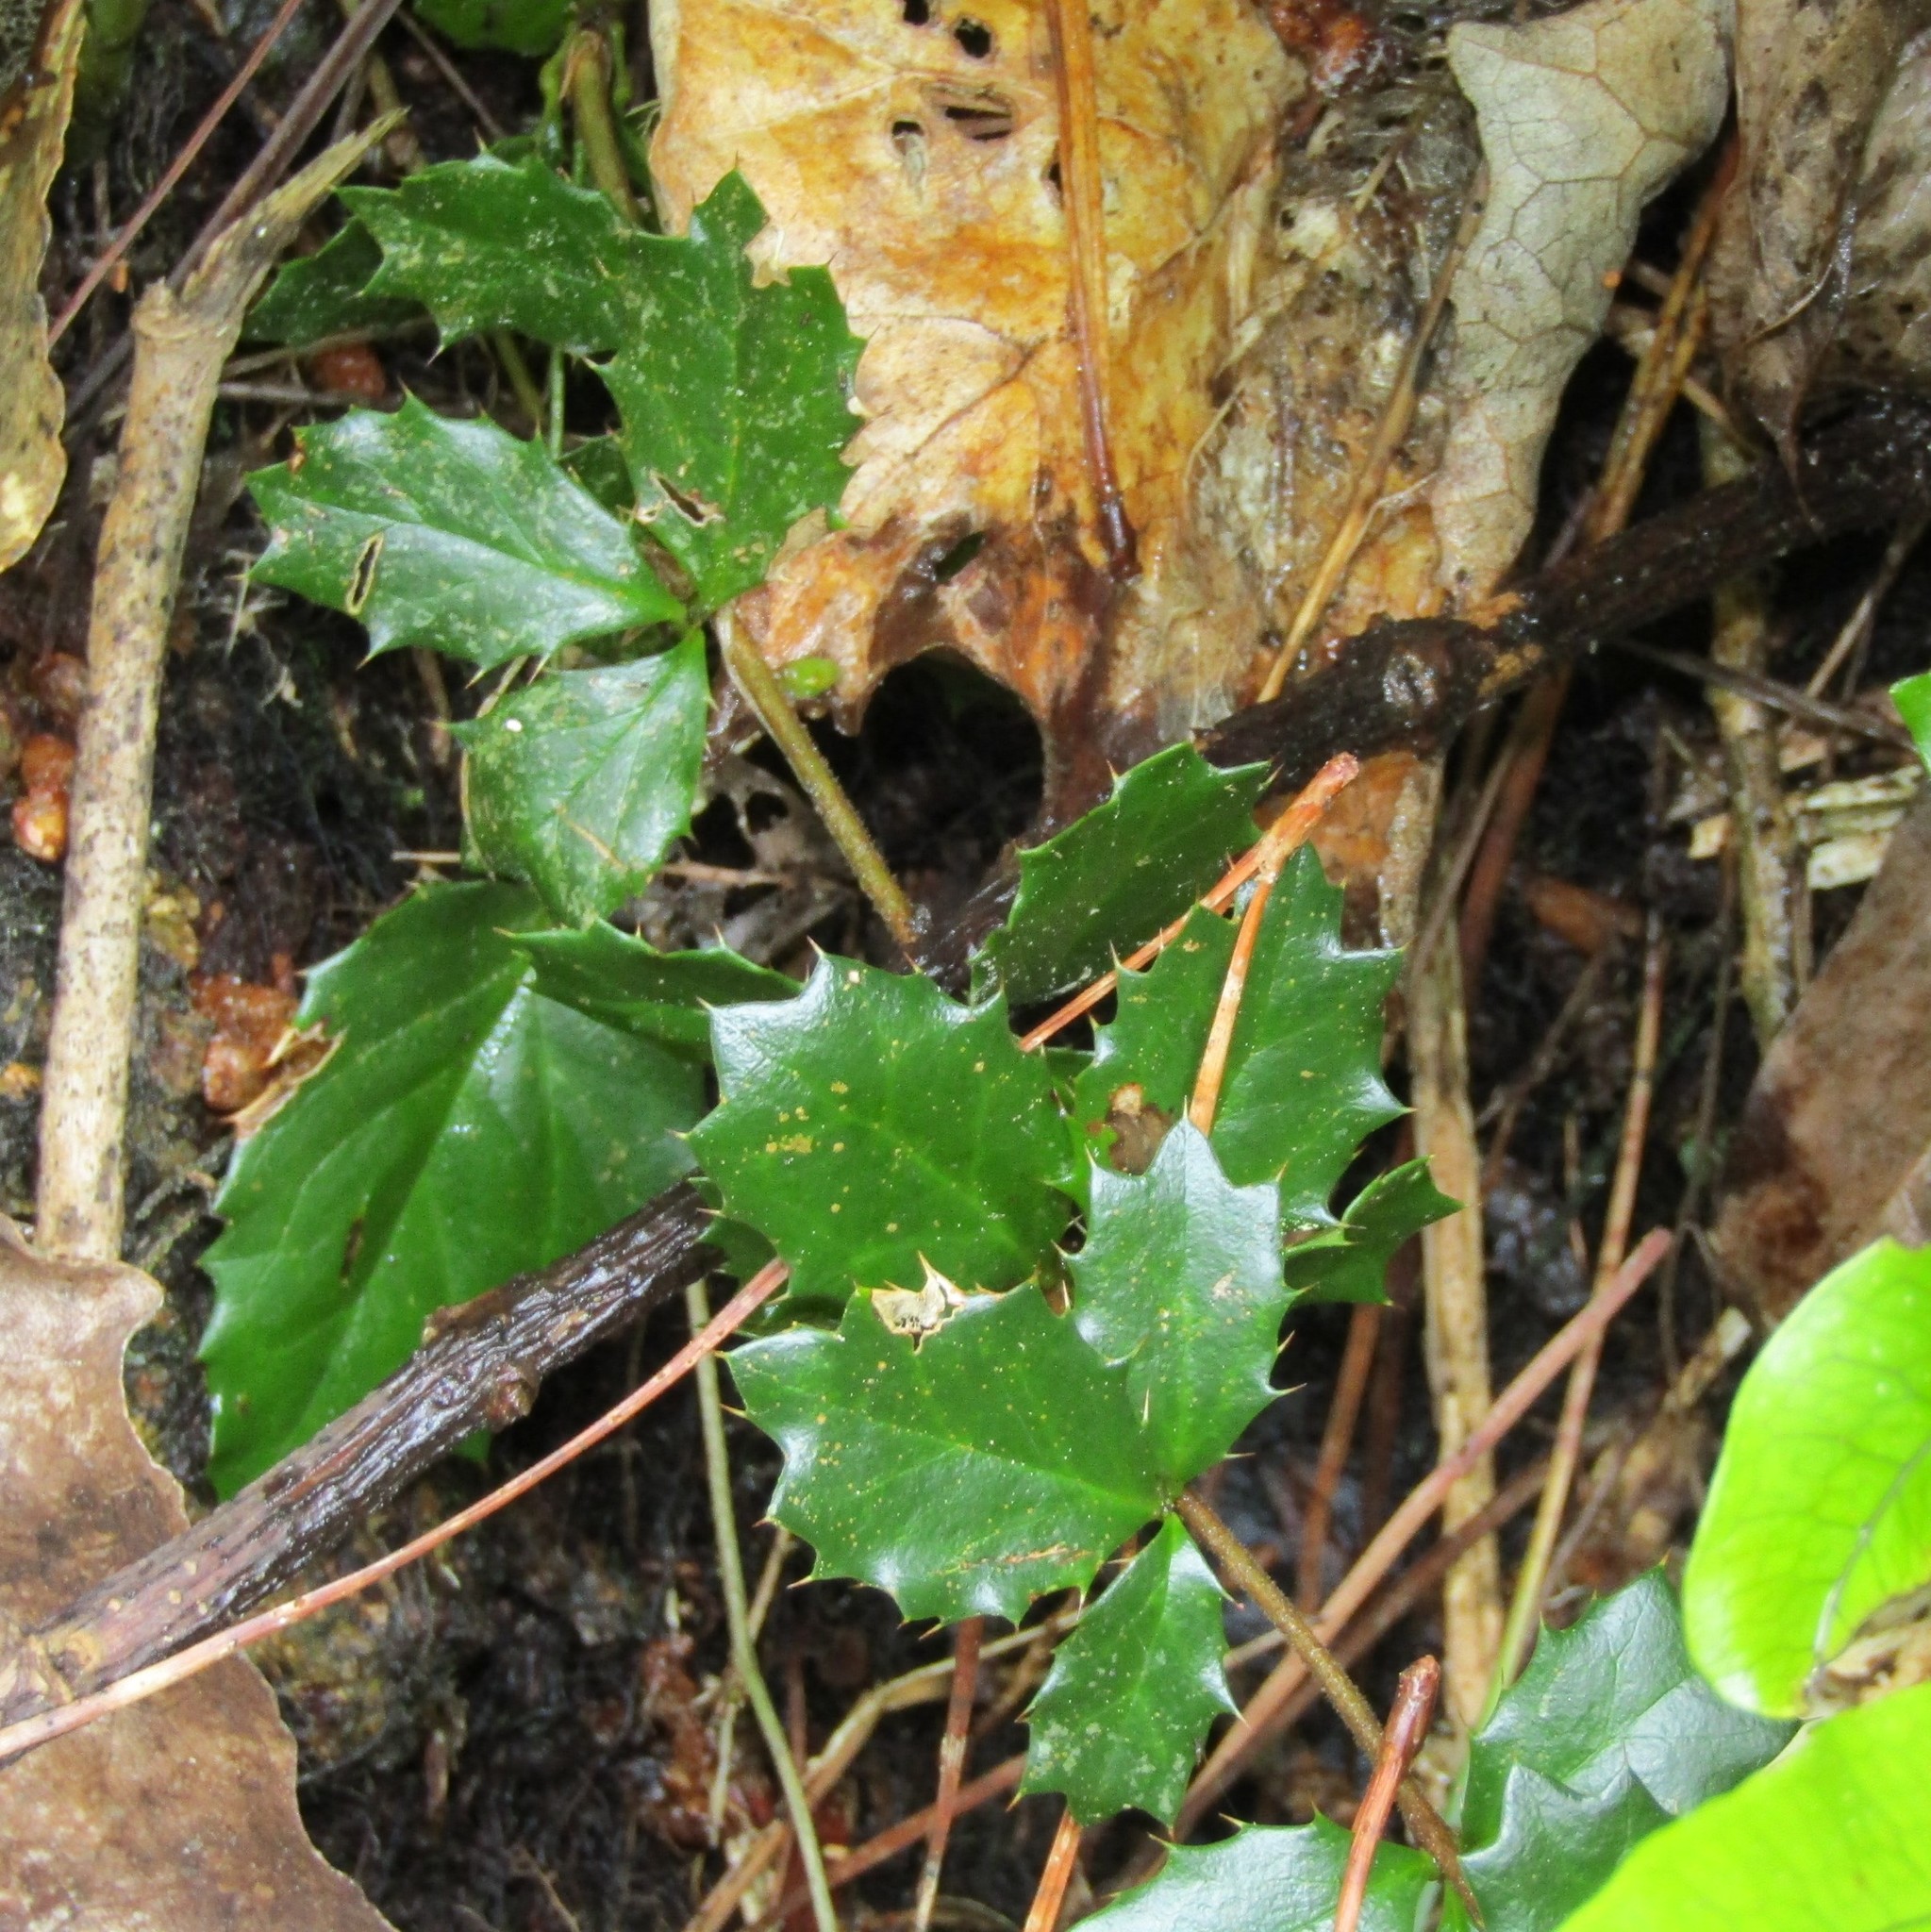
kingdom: Plantae
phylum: Tracheophyta
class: Magnoliopsida
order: Ranunculales
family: Berberidaceae
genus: Berberis
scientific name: Berberis darwinii
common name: Darwin's barberry
